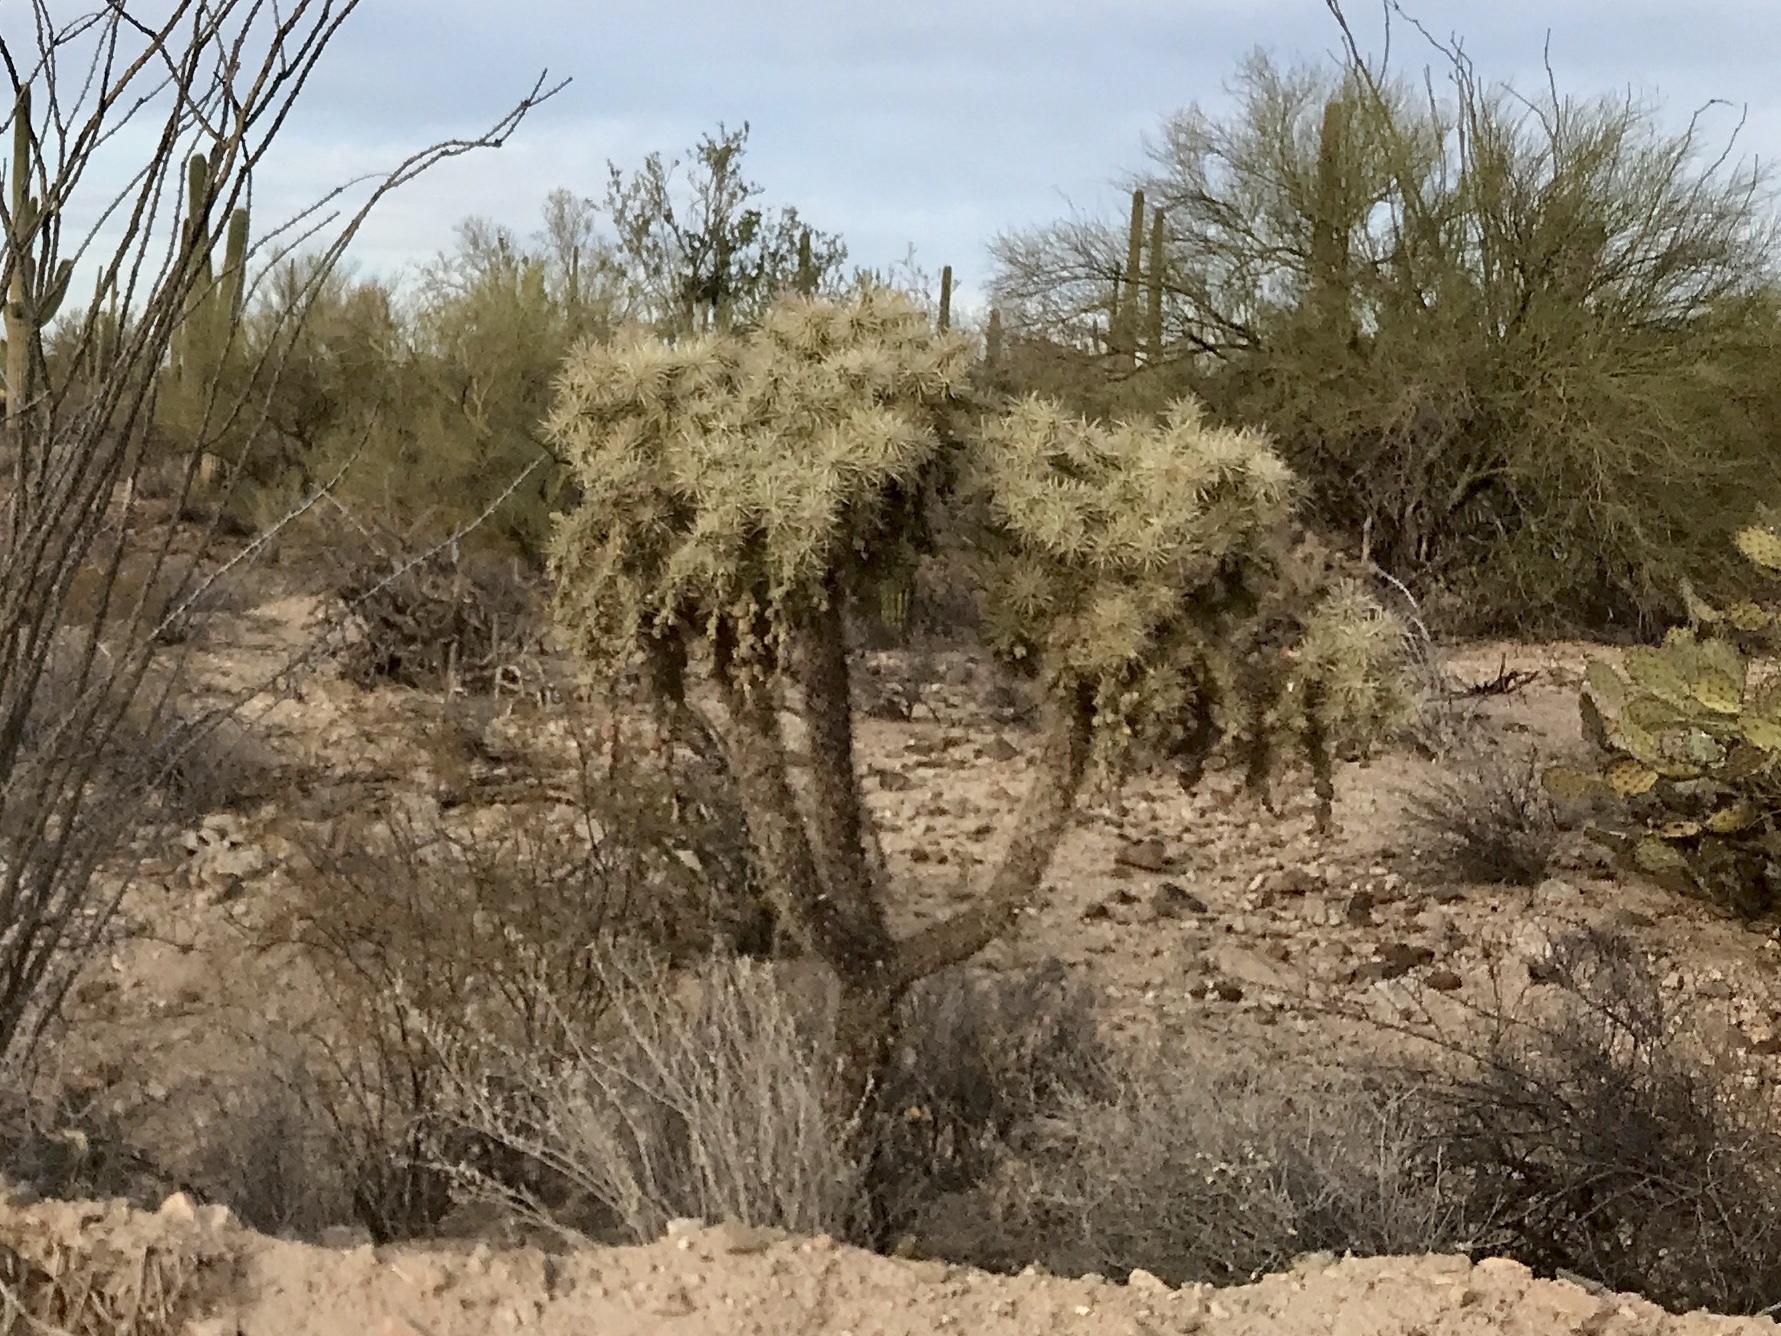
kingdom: Plantae
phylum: Tracheophyta
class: Magnoliopsida
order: Caryophyllales
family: Cactaceae
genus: Cylindropuntia
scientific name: Cylindropuntia fulgida
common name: Jumping cholla
